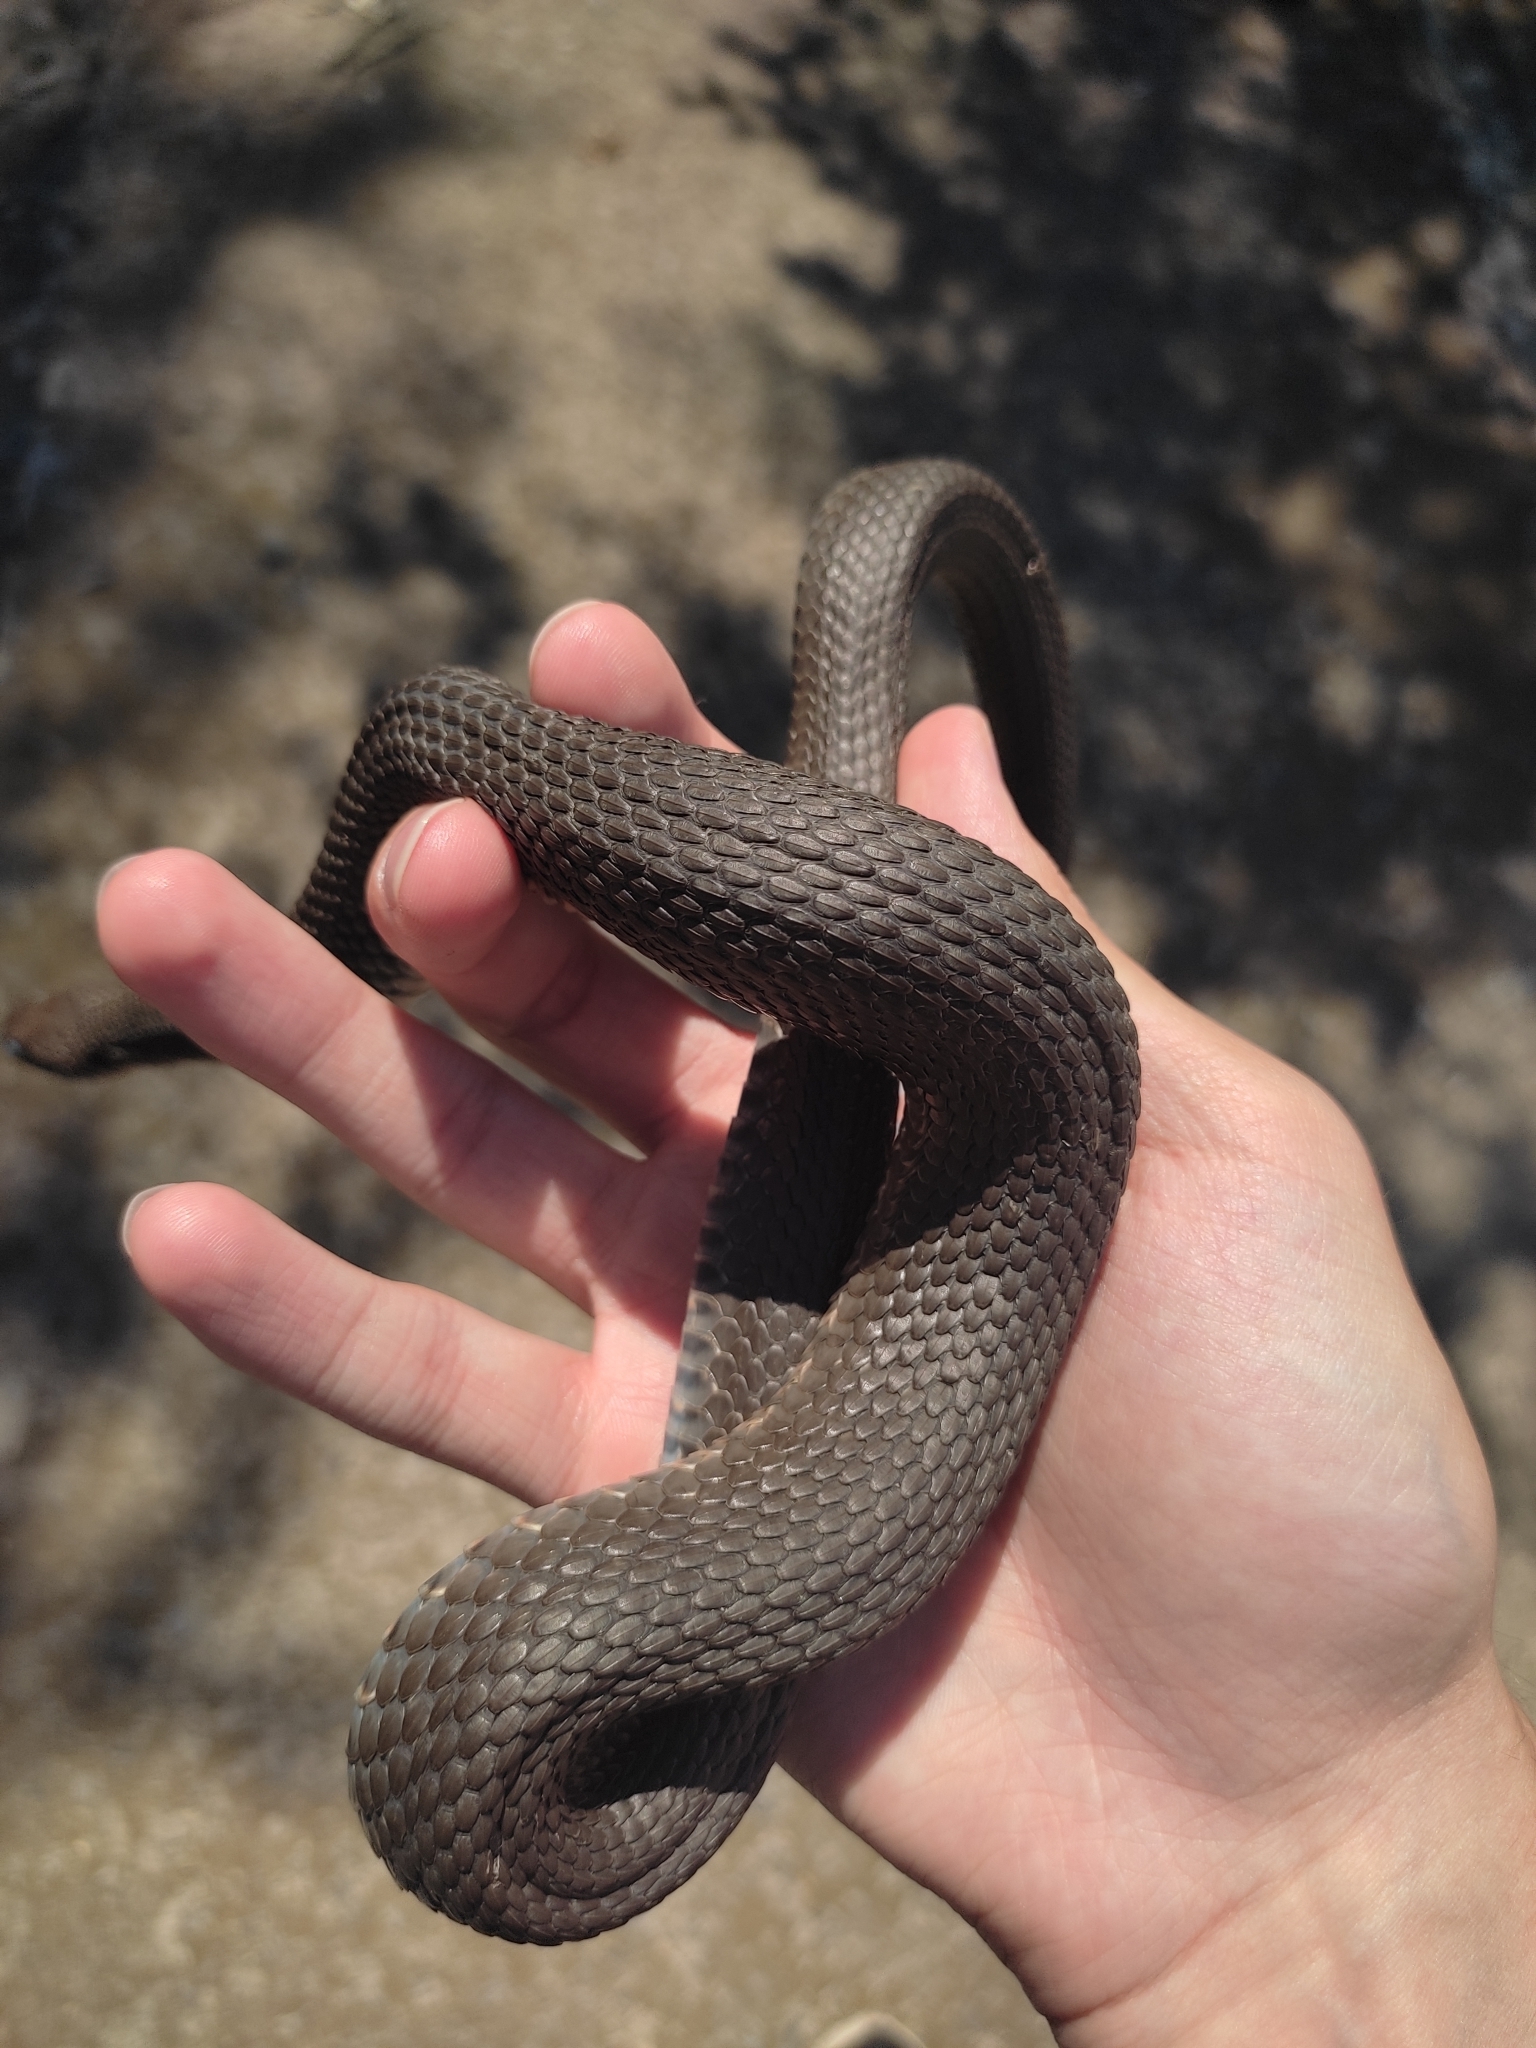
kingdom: Animalia
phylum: Chordata
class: Squamata
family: Colubridae
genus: Natrix
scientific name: Natrix tessellata
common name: Dice snake
